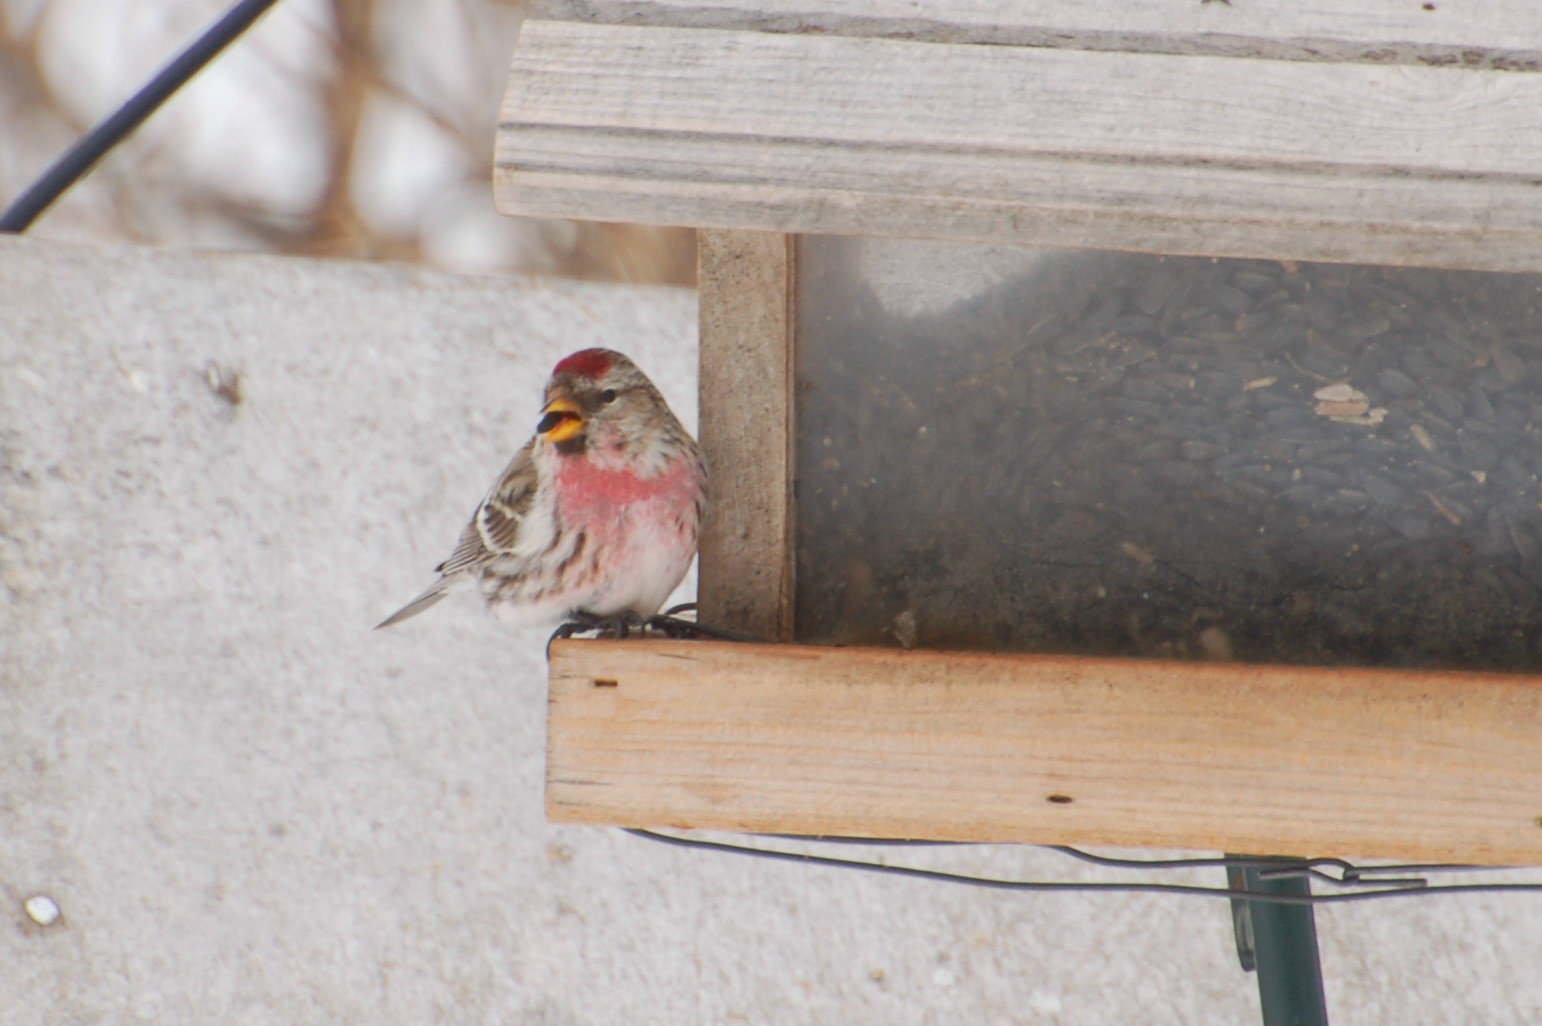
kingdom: Animalia
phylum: Chordata
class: Aves
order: Passeriformes
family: Fringillidae
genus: Acanthis
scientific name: Acanthis flammea
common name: Common redpoll
